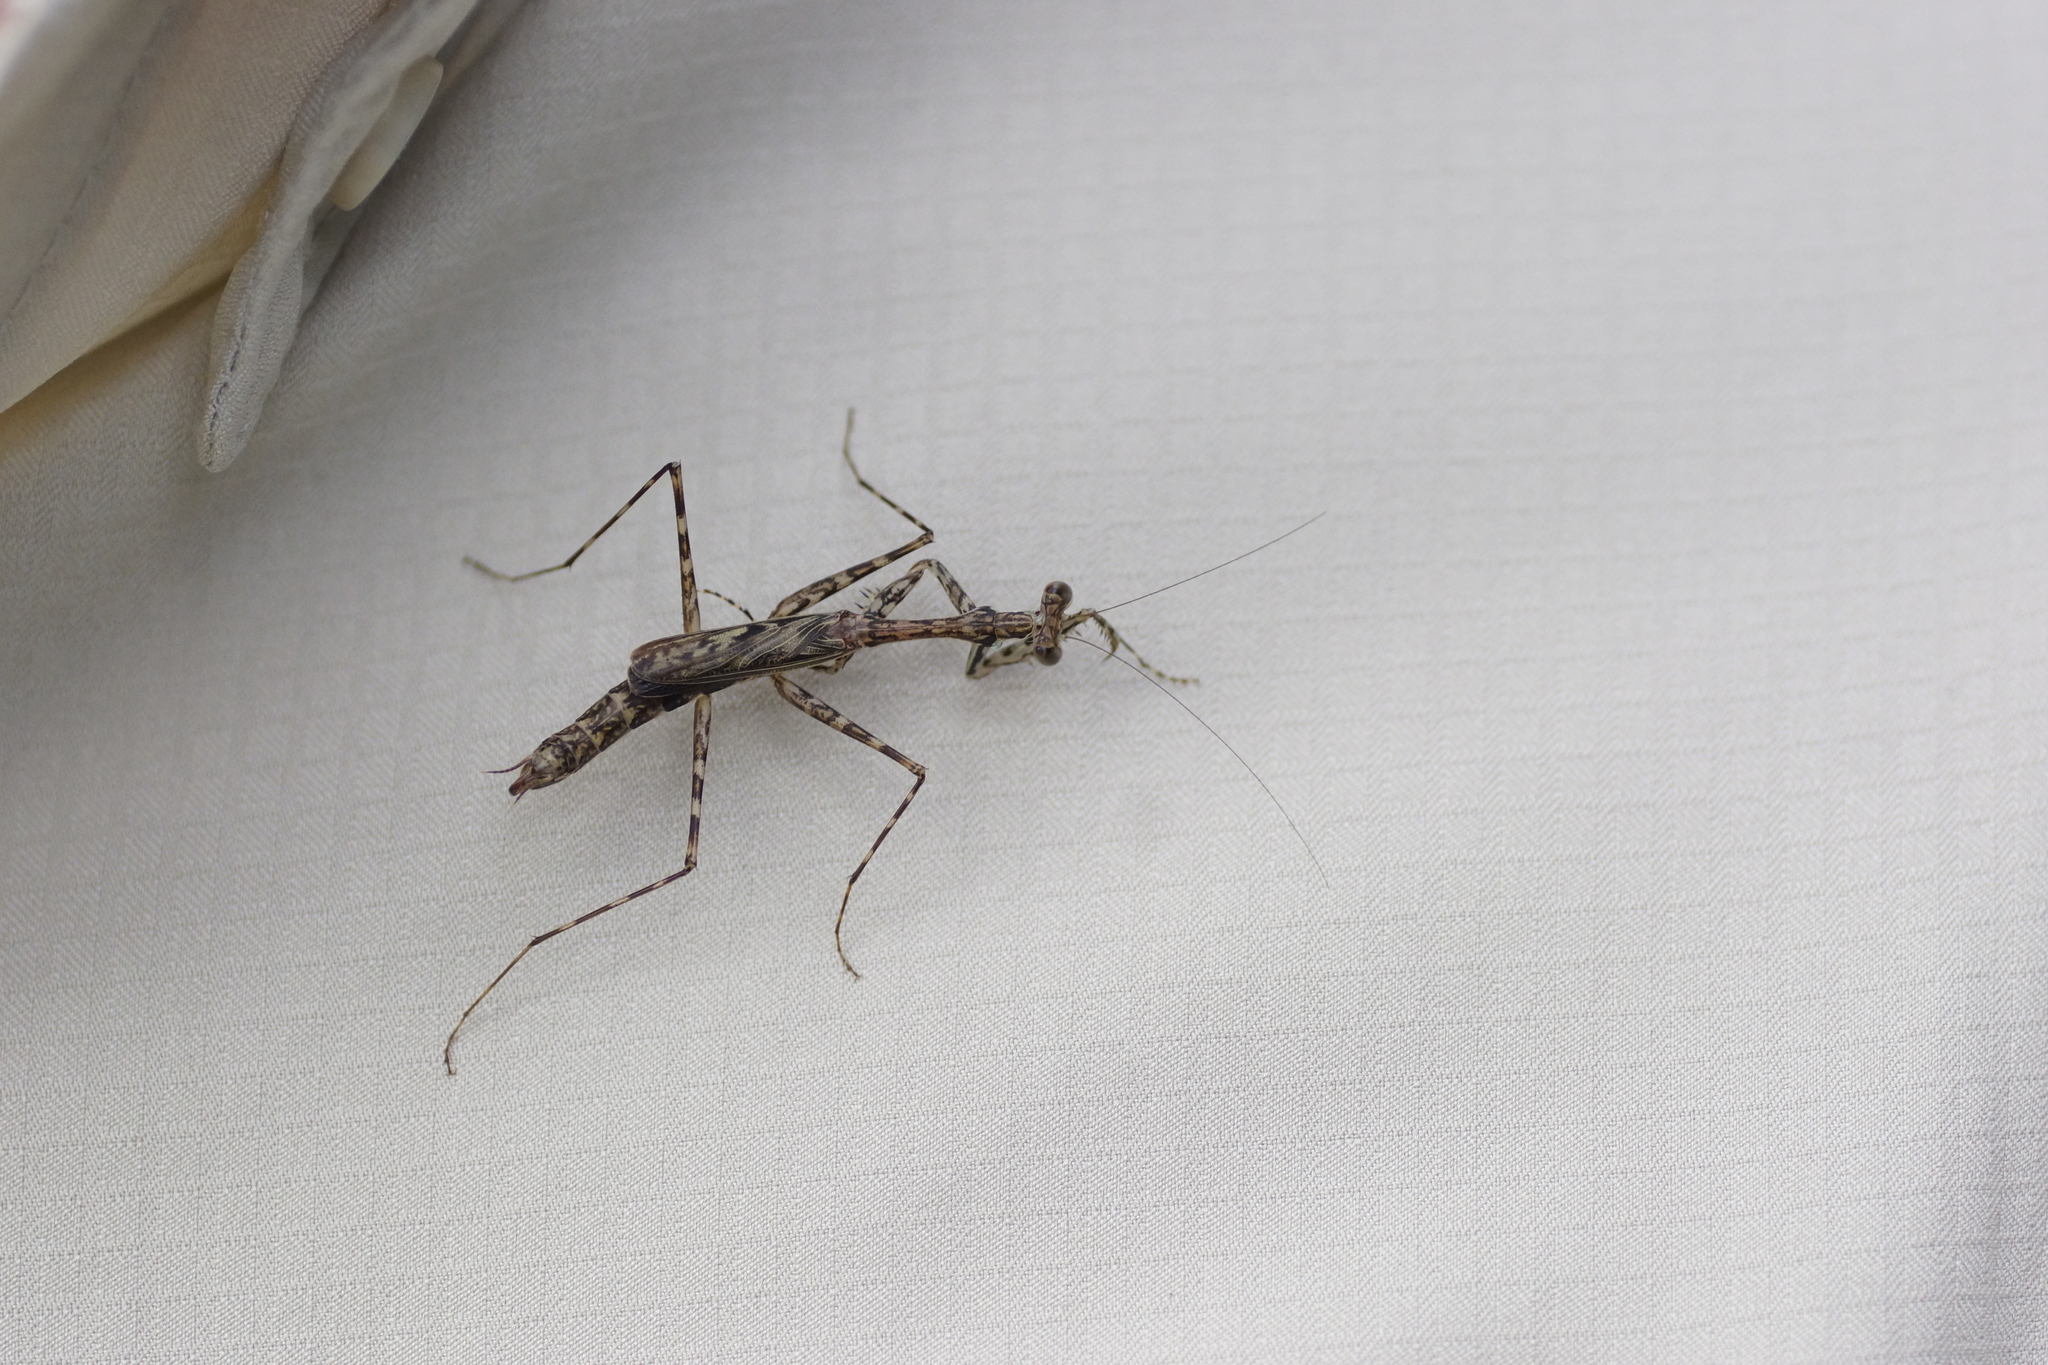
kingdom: Animalia
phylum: Arthropoda
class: Insecta
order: Mantodea
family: Nanomantidae
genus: Ciulfina
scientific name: Ciulfina rentzi
